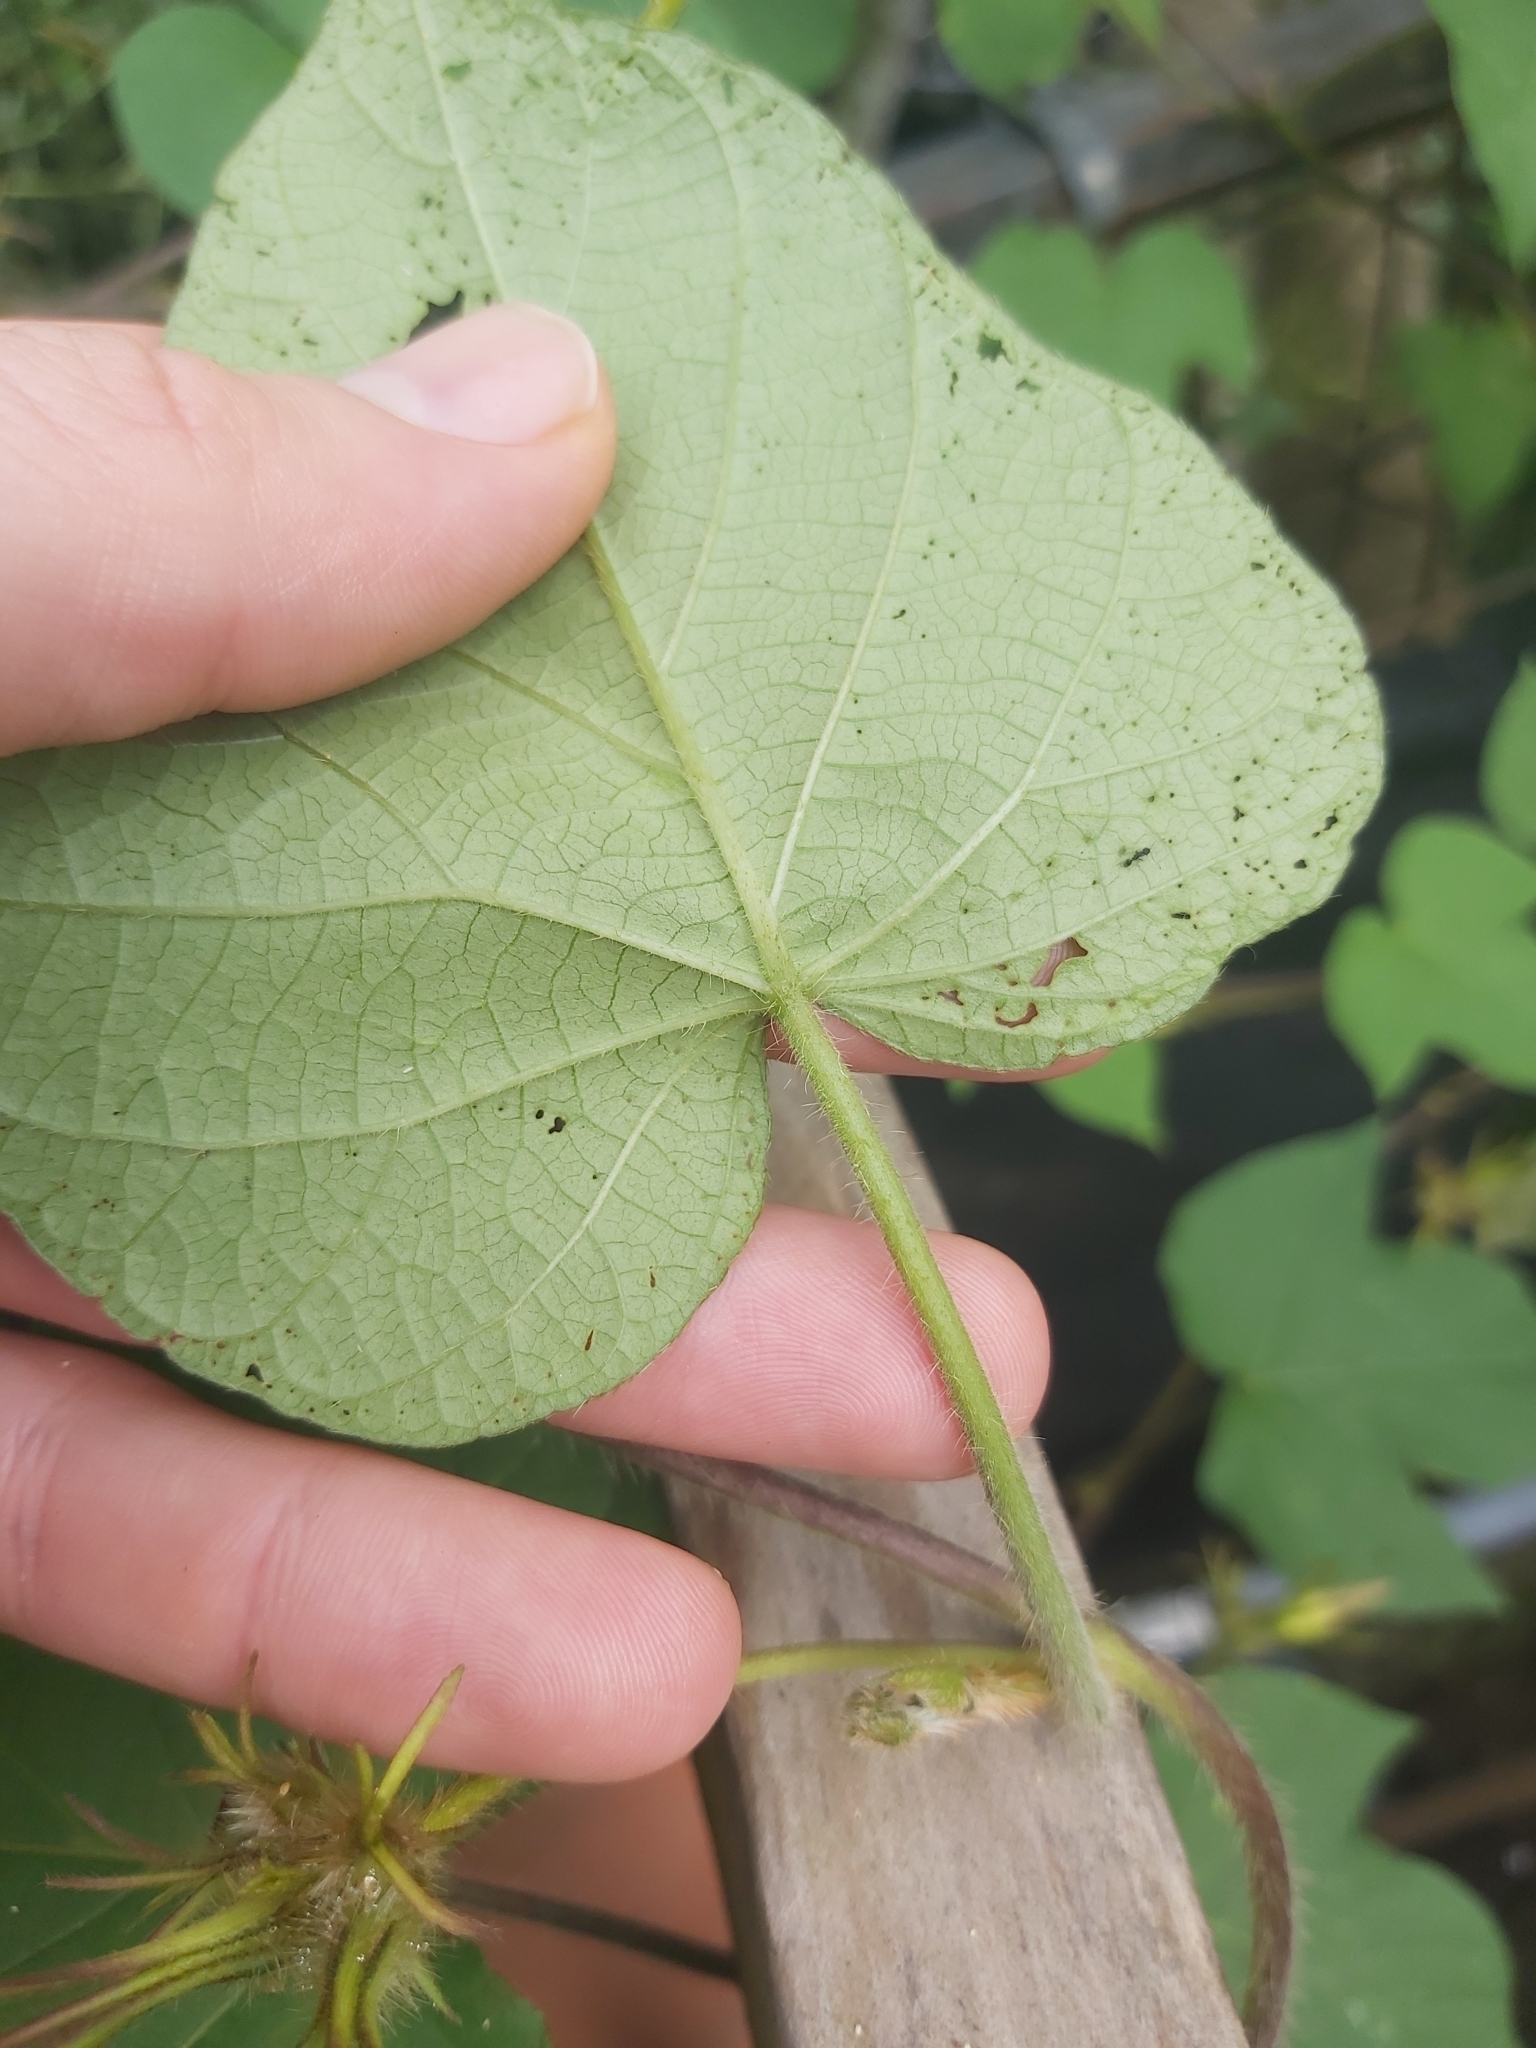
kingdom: Plantae
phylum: Tracheophyta
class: Magnoliopsida
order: Solanales
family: Convolvulaceae
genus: Ipomoea
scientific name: Ipomoea nil
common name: Japanese morning-glory
